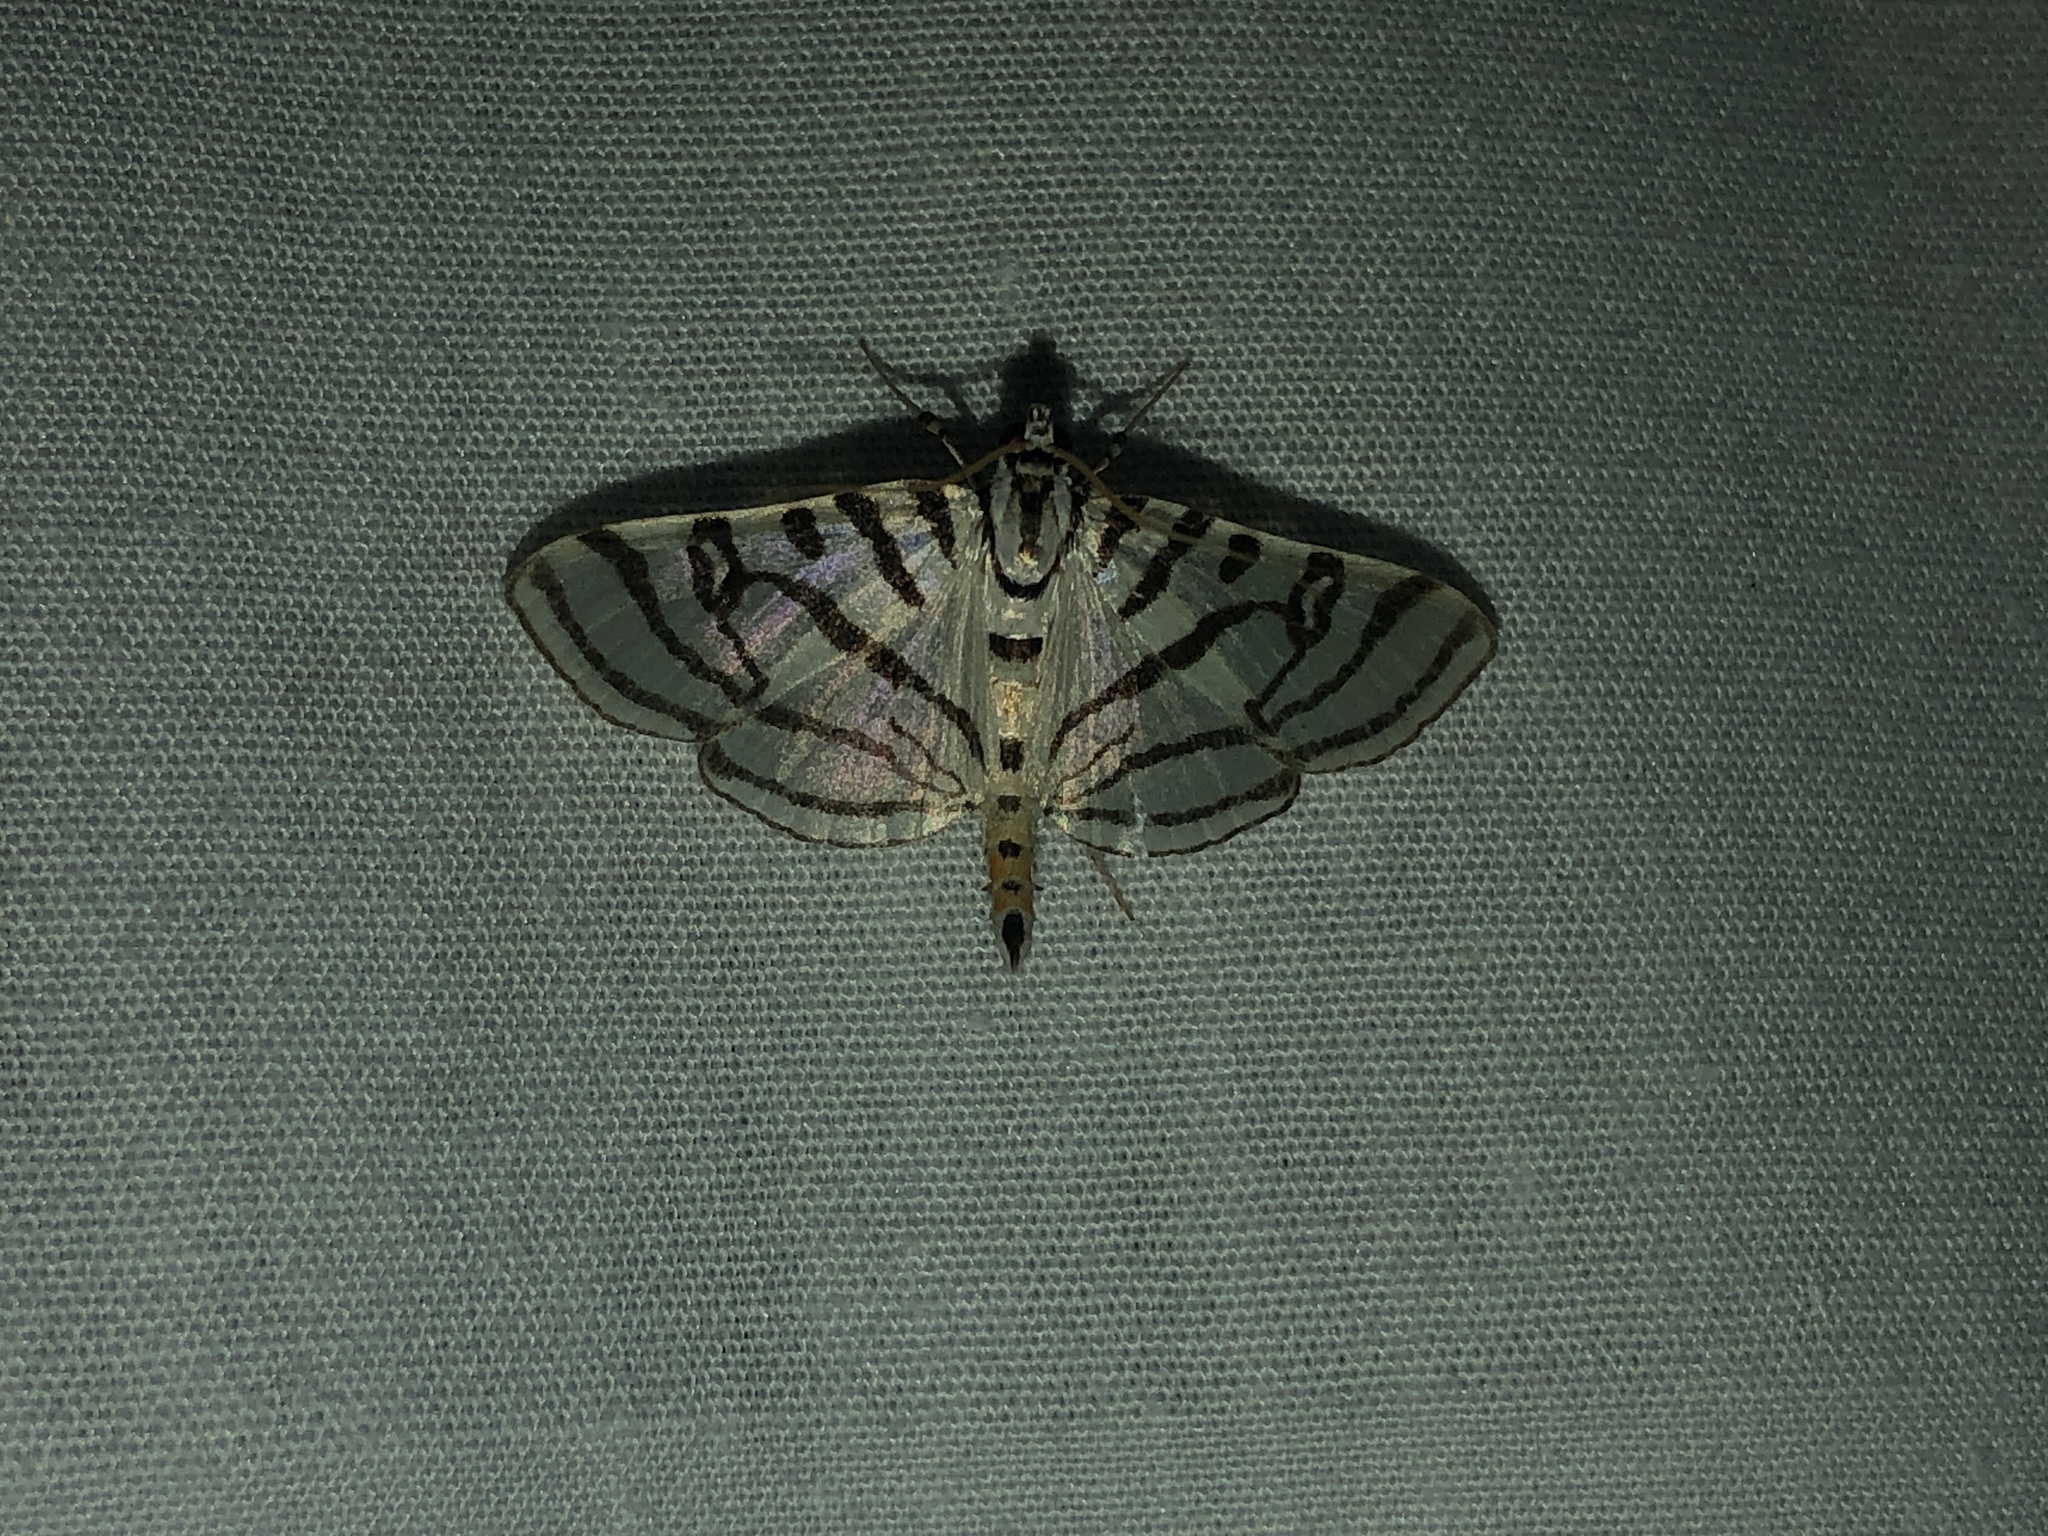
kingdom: Animalia
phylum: Arthropoda
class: Insecta
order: Lepidoptera
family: Crambidae
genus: Conchylodes
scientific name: Conchylodes ovulalis
